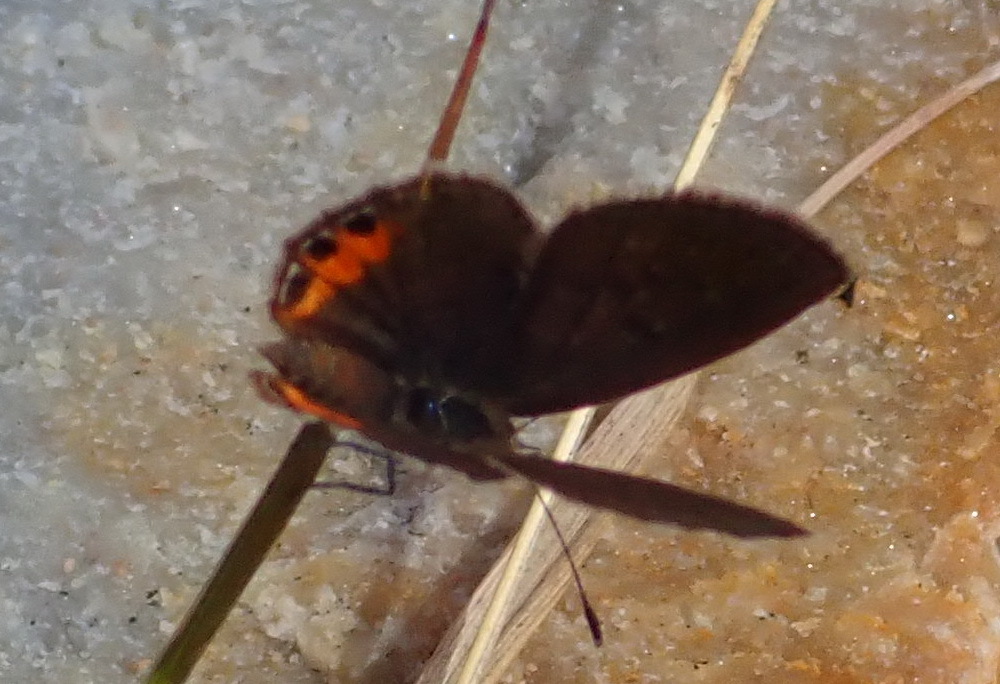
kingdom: Animalia
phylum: Arthropoda
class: Insecta
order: Lepidoptera
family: Lycaenidae
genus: Freyeria
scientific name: Freyeria trochylus
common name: Grass jewel
